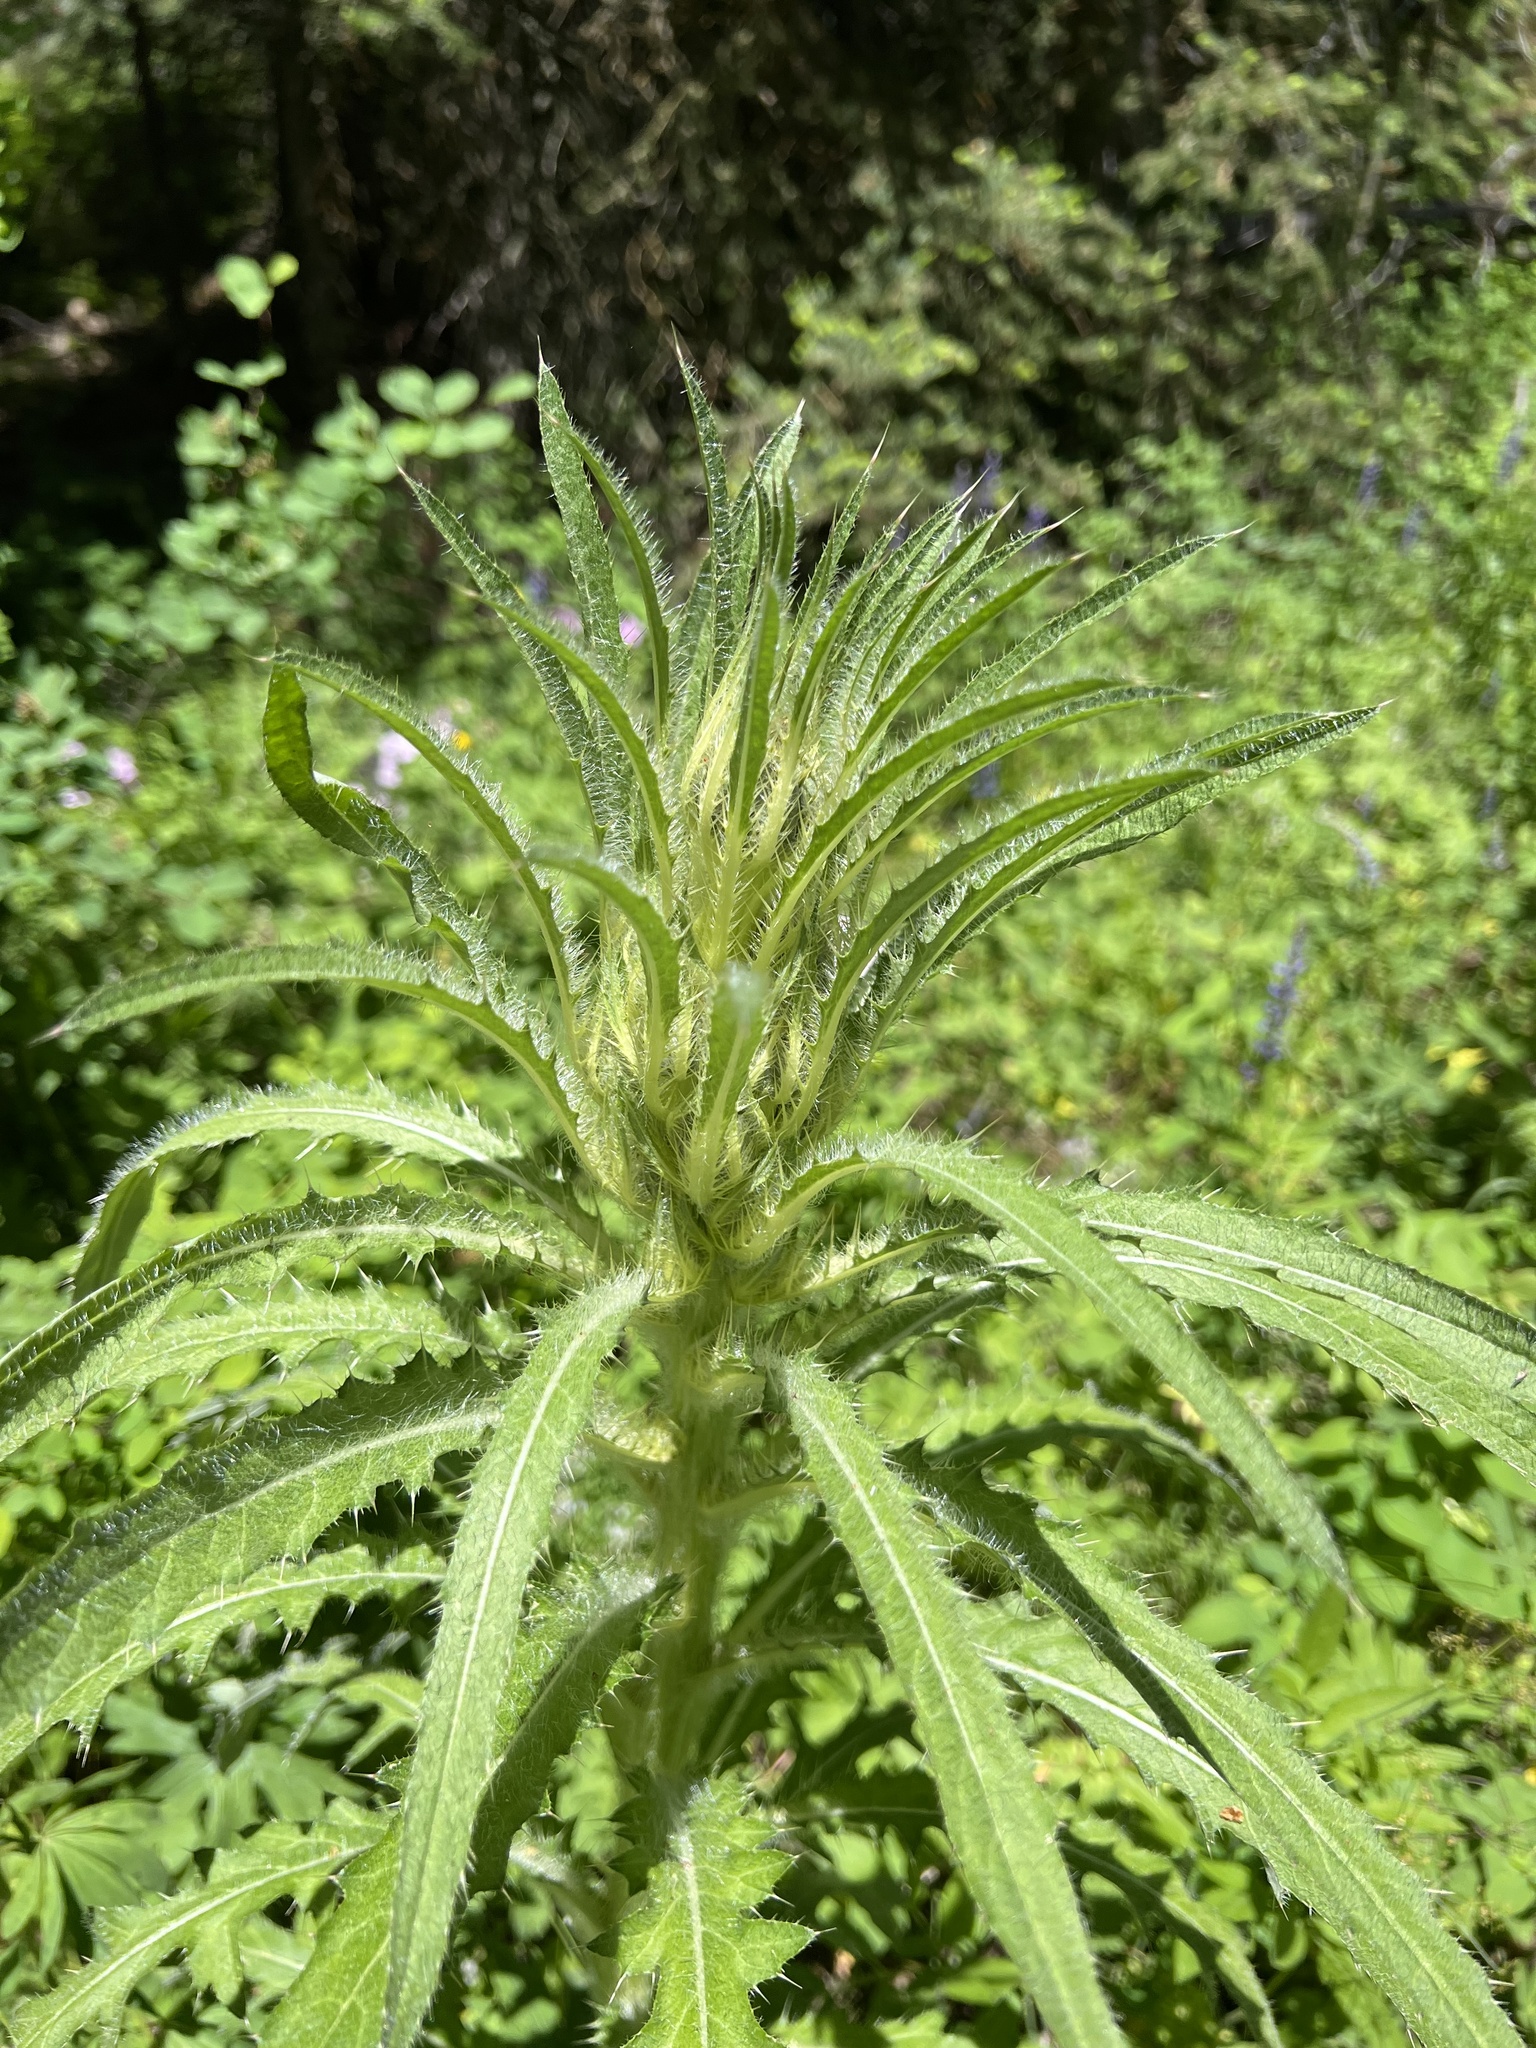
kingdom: Plantae
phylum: Tracheophyta
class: Magnoliopsida
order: Asterales
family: Asteraceae
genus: Cirsium
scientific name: Cirsium scariosum
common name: Meadow thistle
